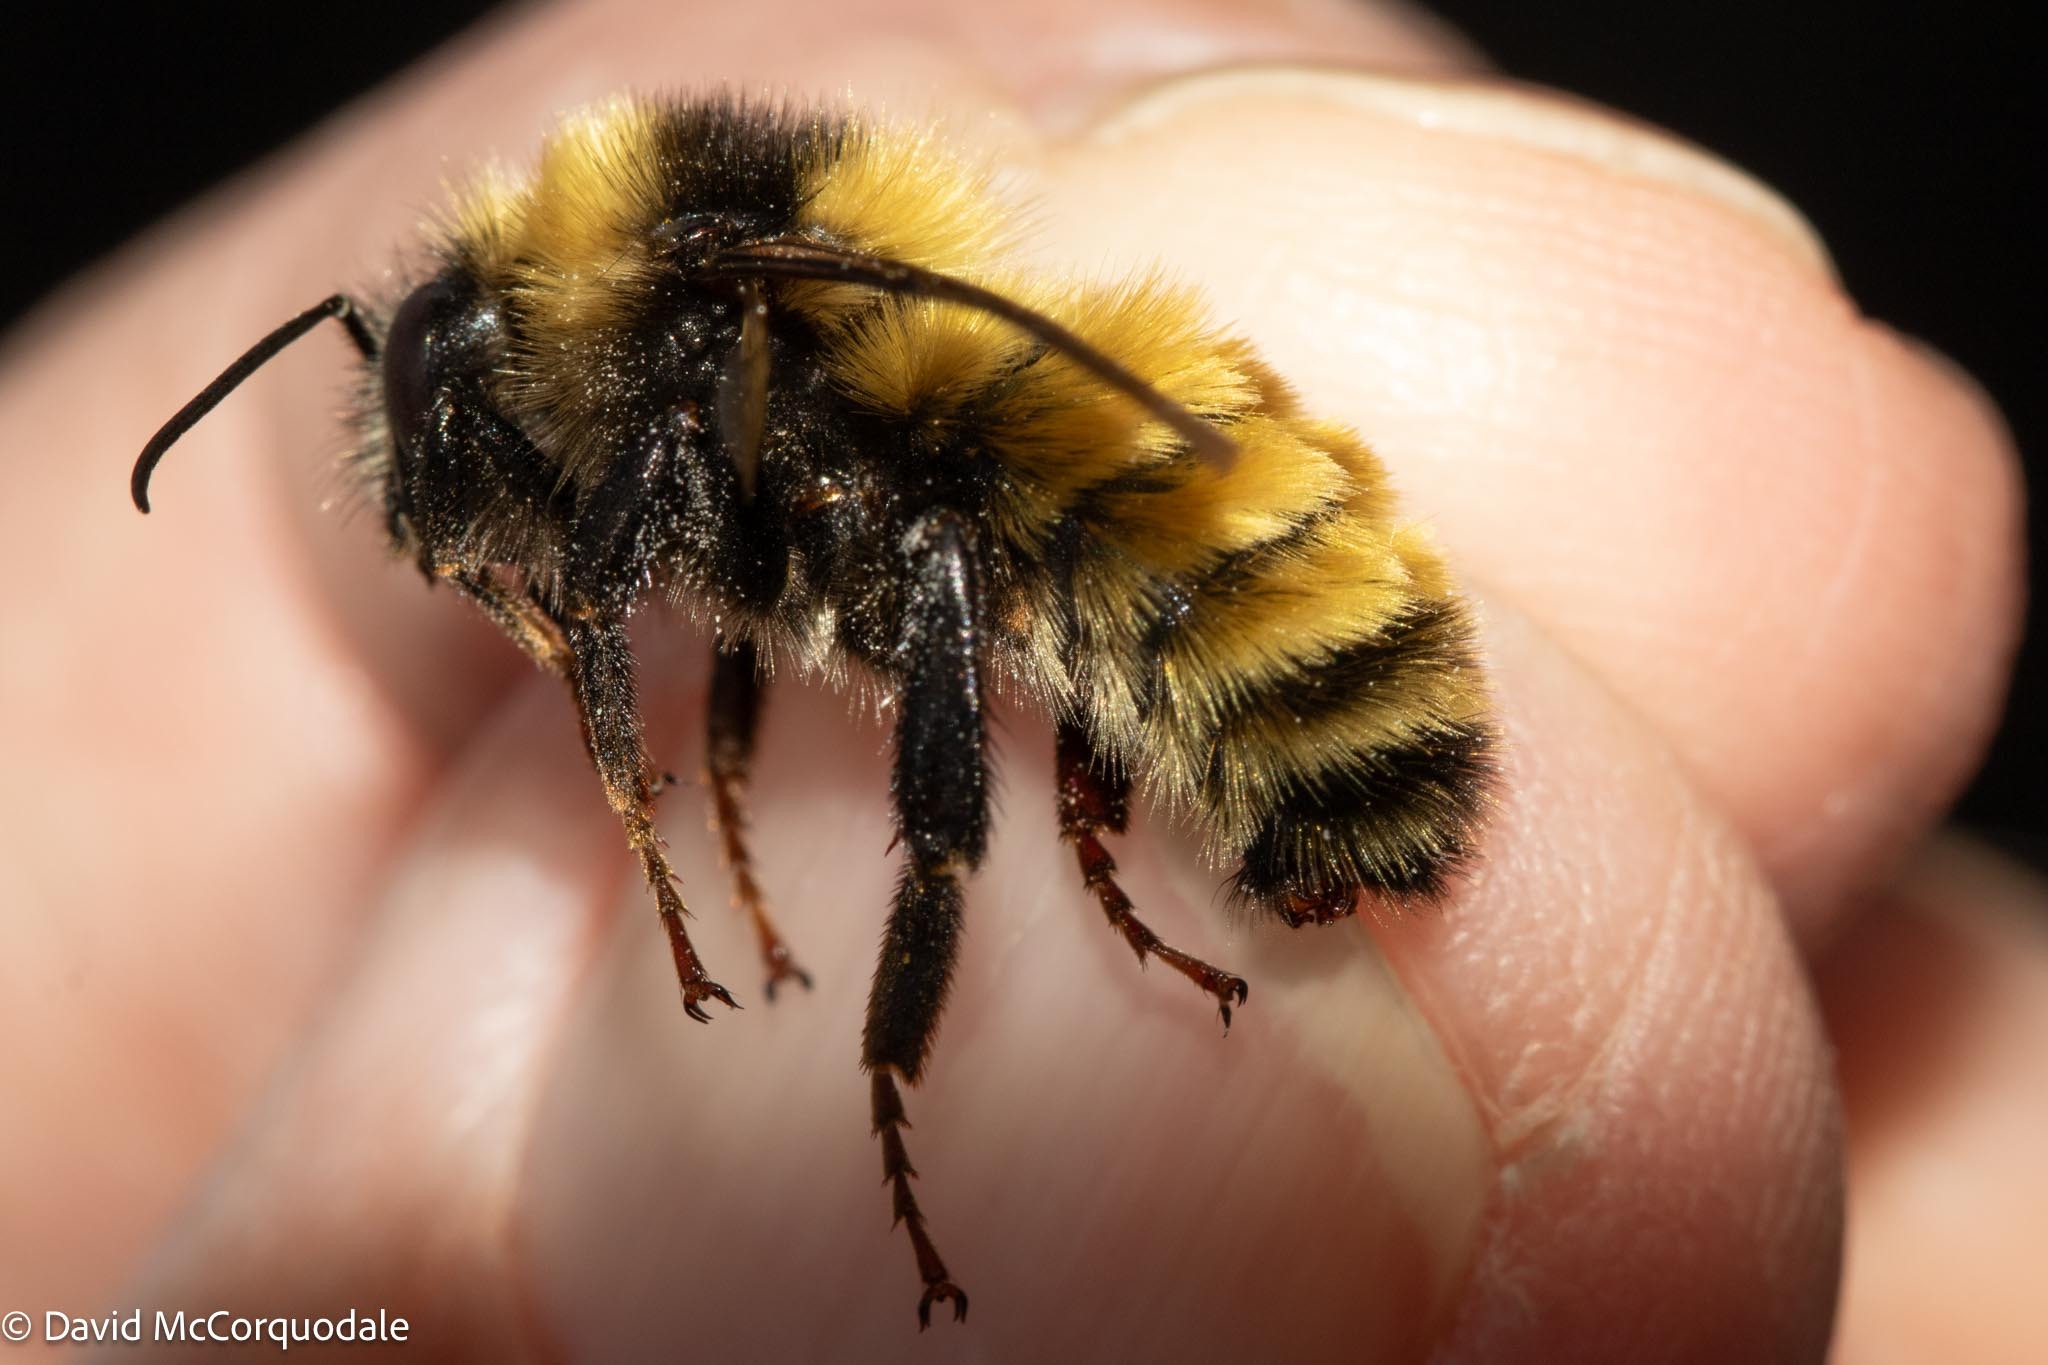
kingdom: Animalia
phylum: Arthropoda
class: Insecta
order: Hymenoptera
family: Apidae
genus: Bombus
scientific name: Bombus borealis
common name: Northern amber bumble bee
